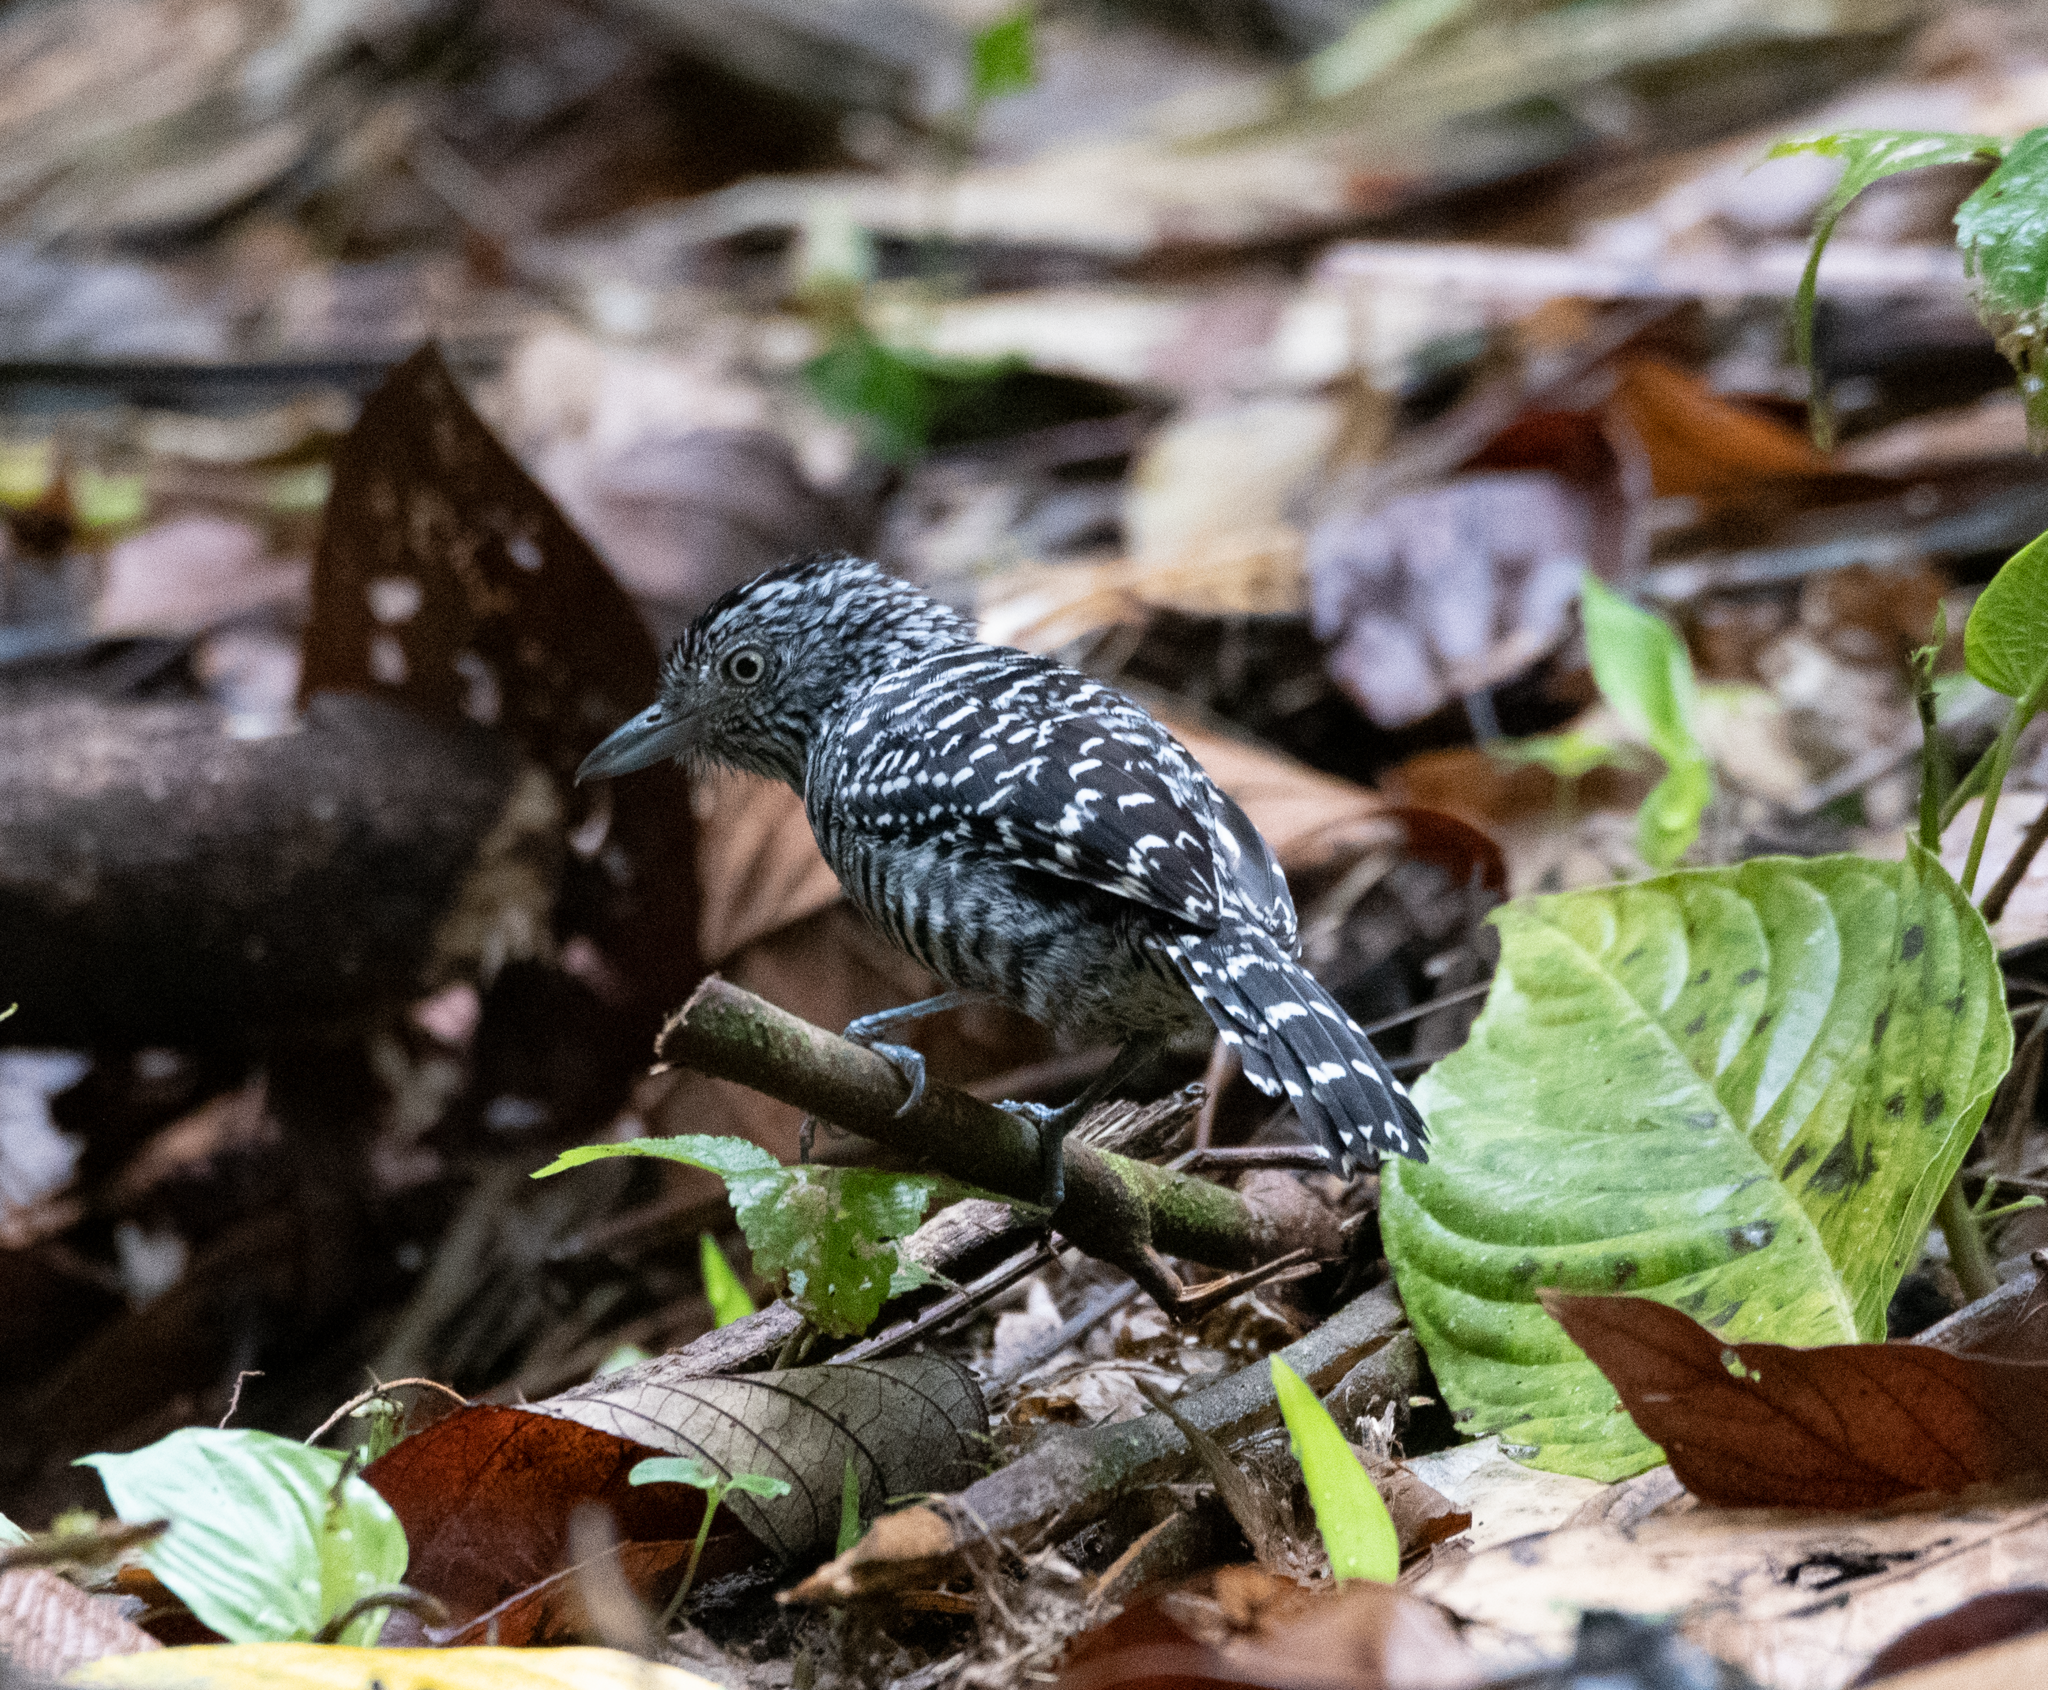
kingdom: Animalia
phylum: Chordata
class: Aves
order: Passeriformes
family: Thamnophilidae
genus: Thamnophilus
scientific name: Thamnophilus doliatus
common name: Barred antshrike
